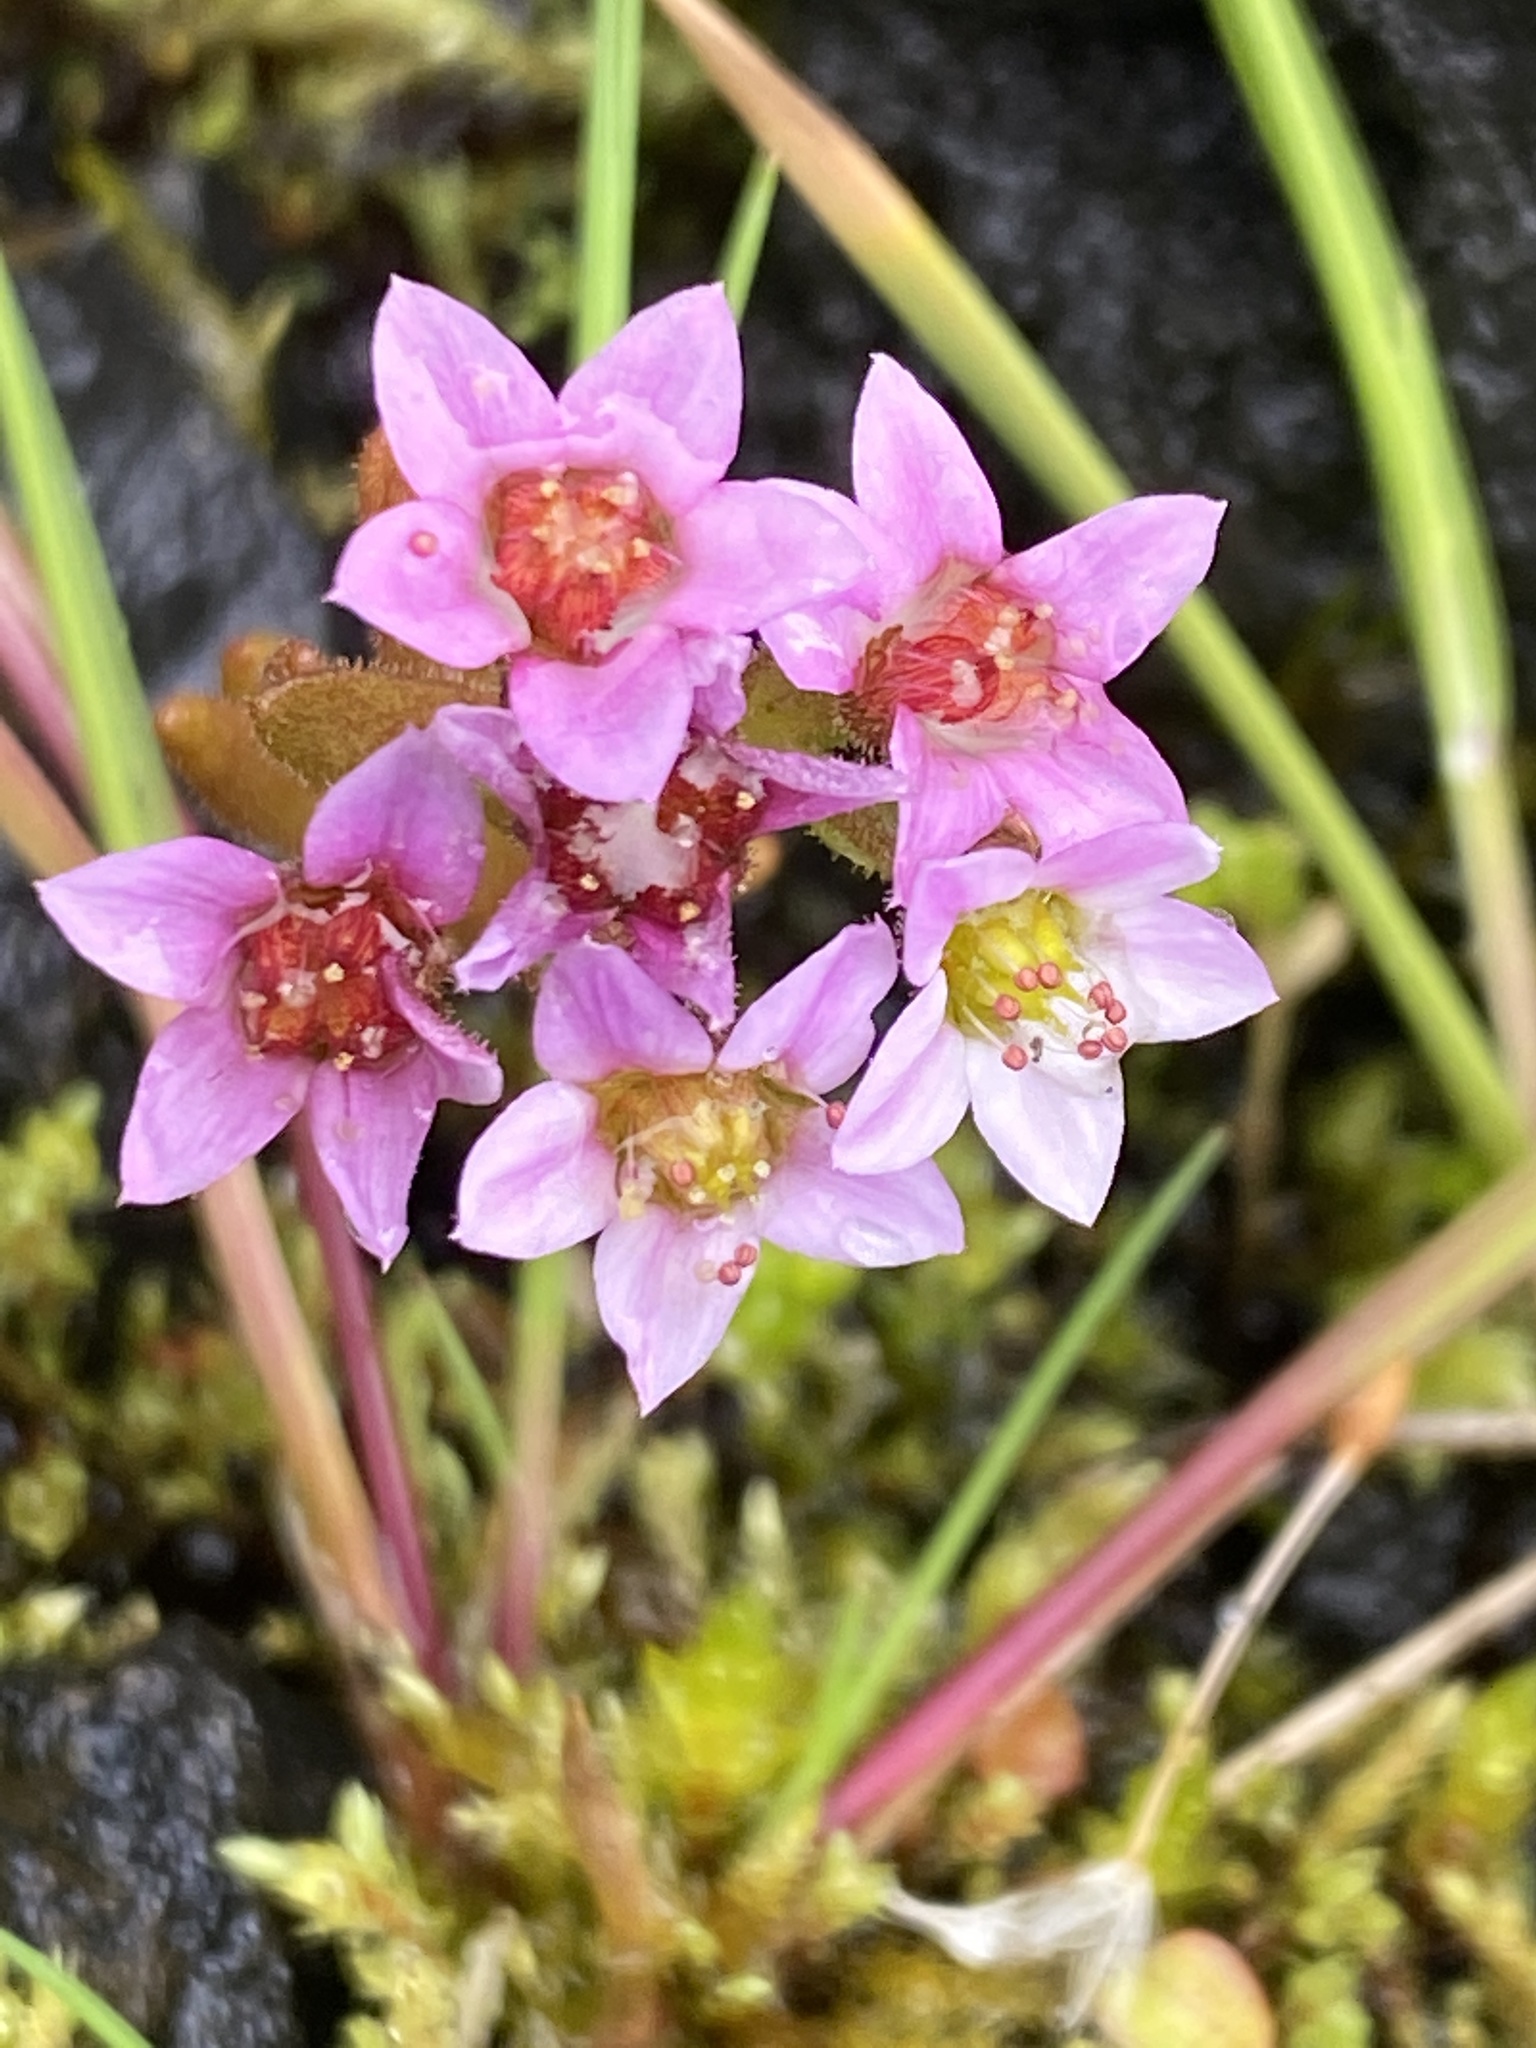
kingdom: Plantae
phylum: Tracheophyta
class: Magnoliopsida
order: Saxifragales
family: Crassulaceae
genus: Sedum
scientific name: Sedum villosum
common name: Hairy stonecrop
